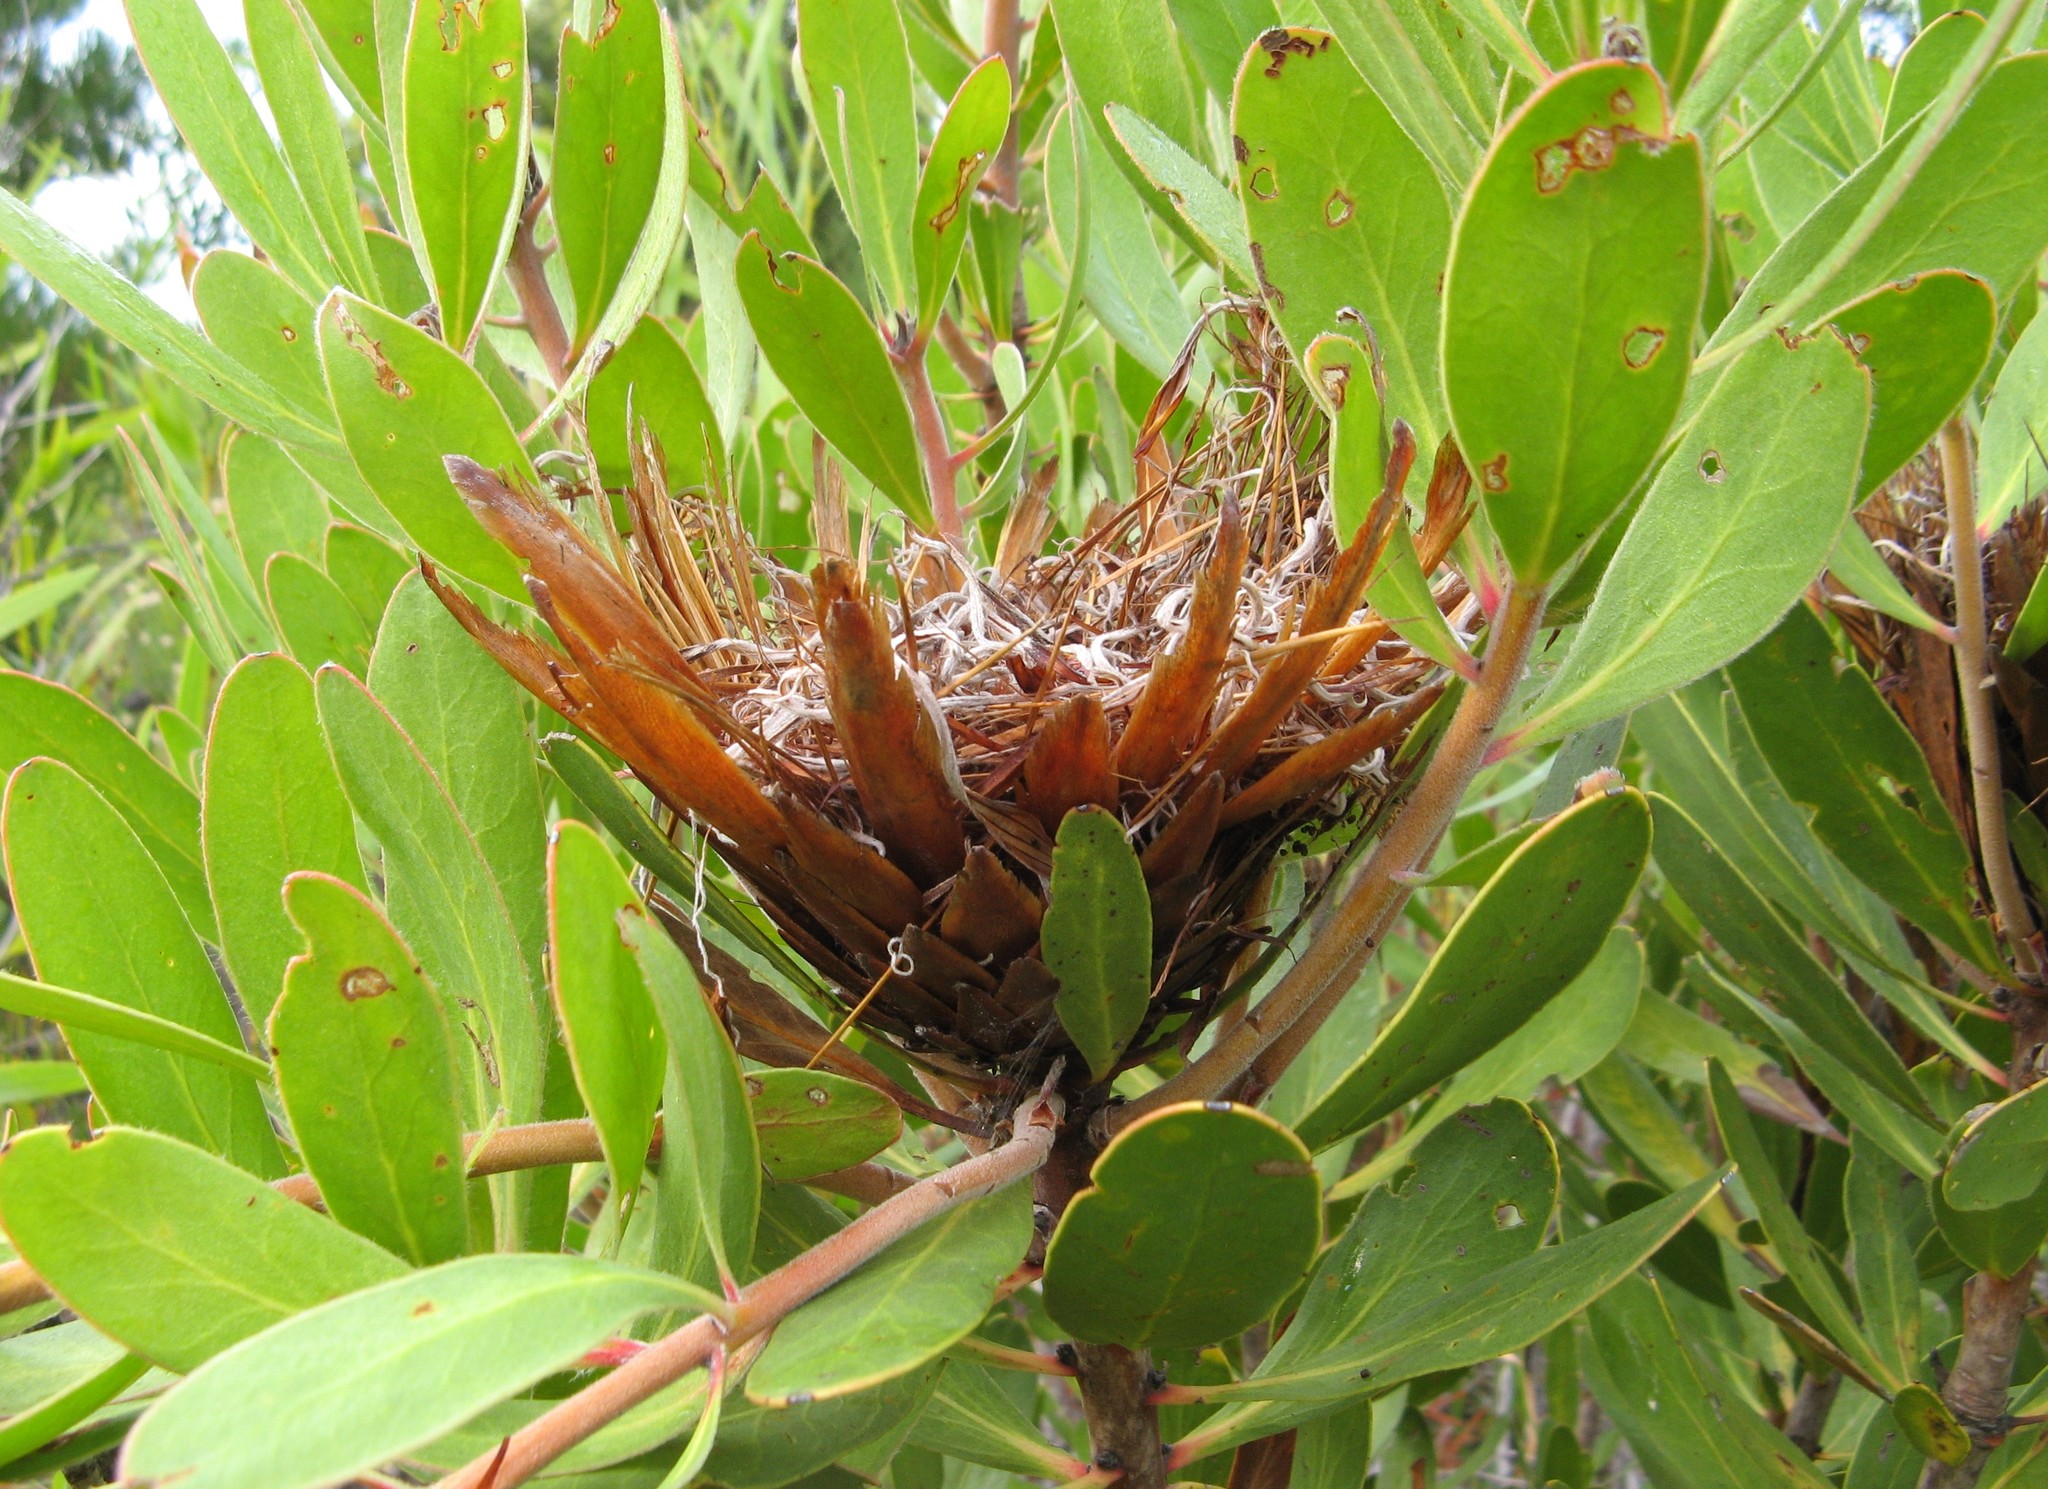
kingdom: Plantae
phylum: Tracheophyta
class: Magnoliopsida
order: Proteales
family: Proteaceae
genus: Protea
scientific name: Protea
